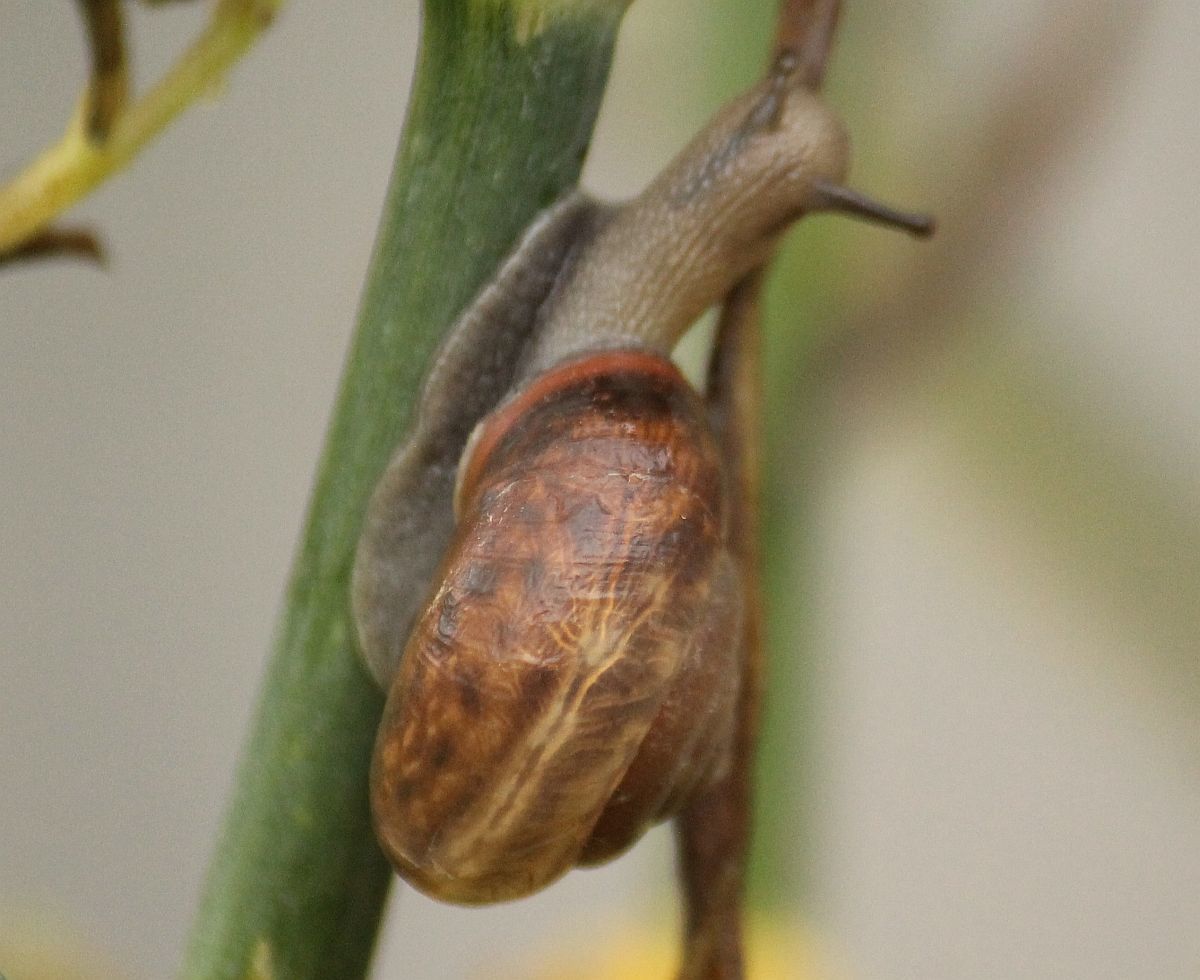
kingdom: Animalia
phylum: Mollusca
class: Gastropoda
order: Stylommatophora
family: Hygromiidae
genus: Monacha
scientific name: Monacha cantiana
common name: Kentish snail
